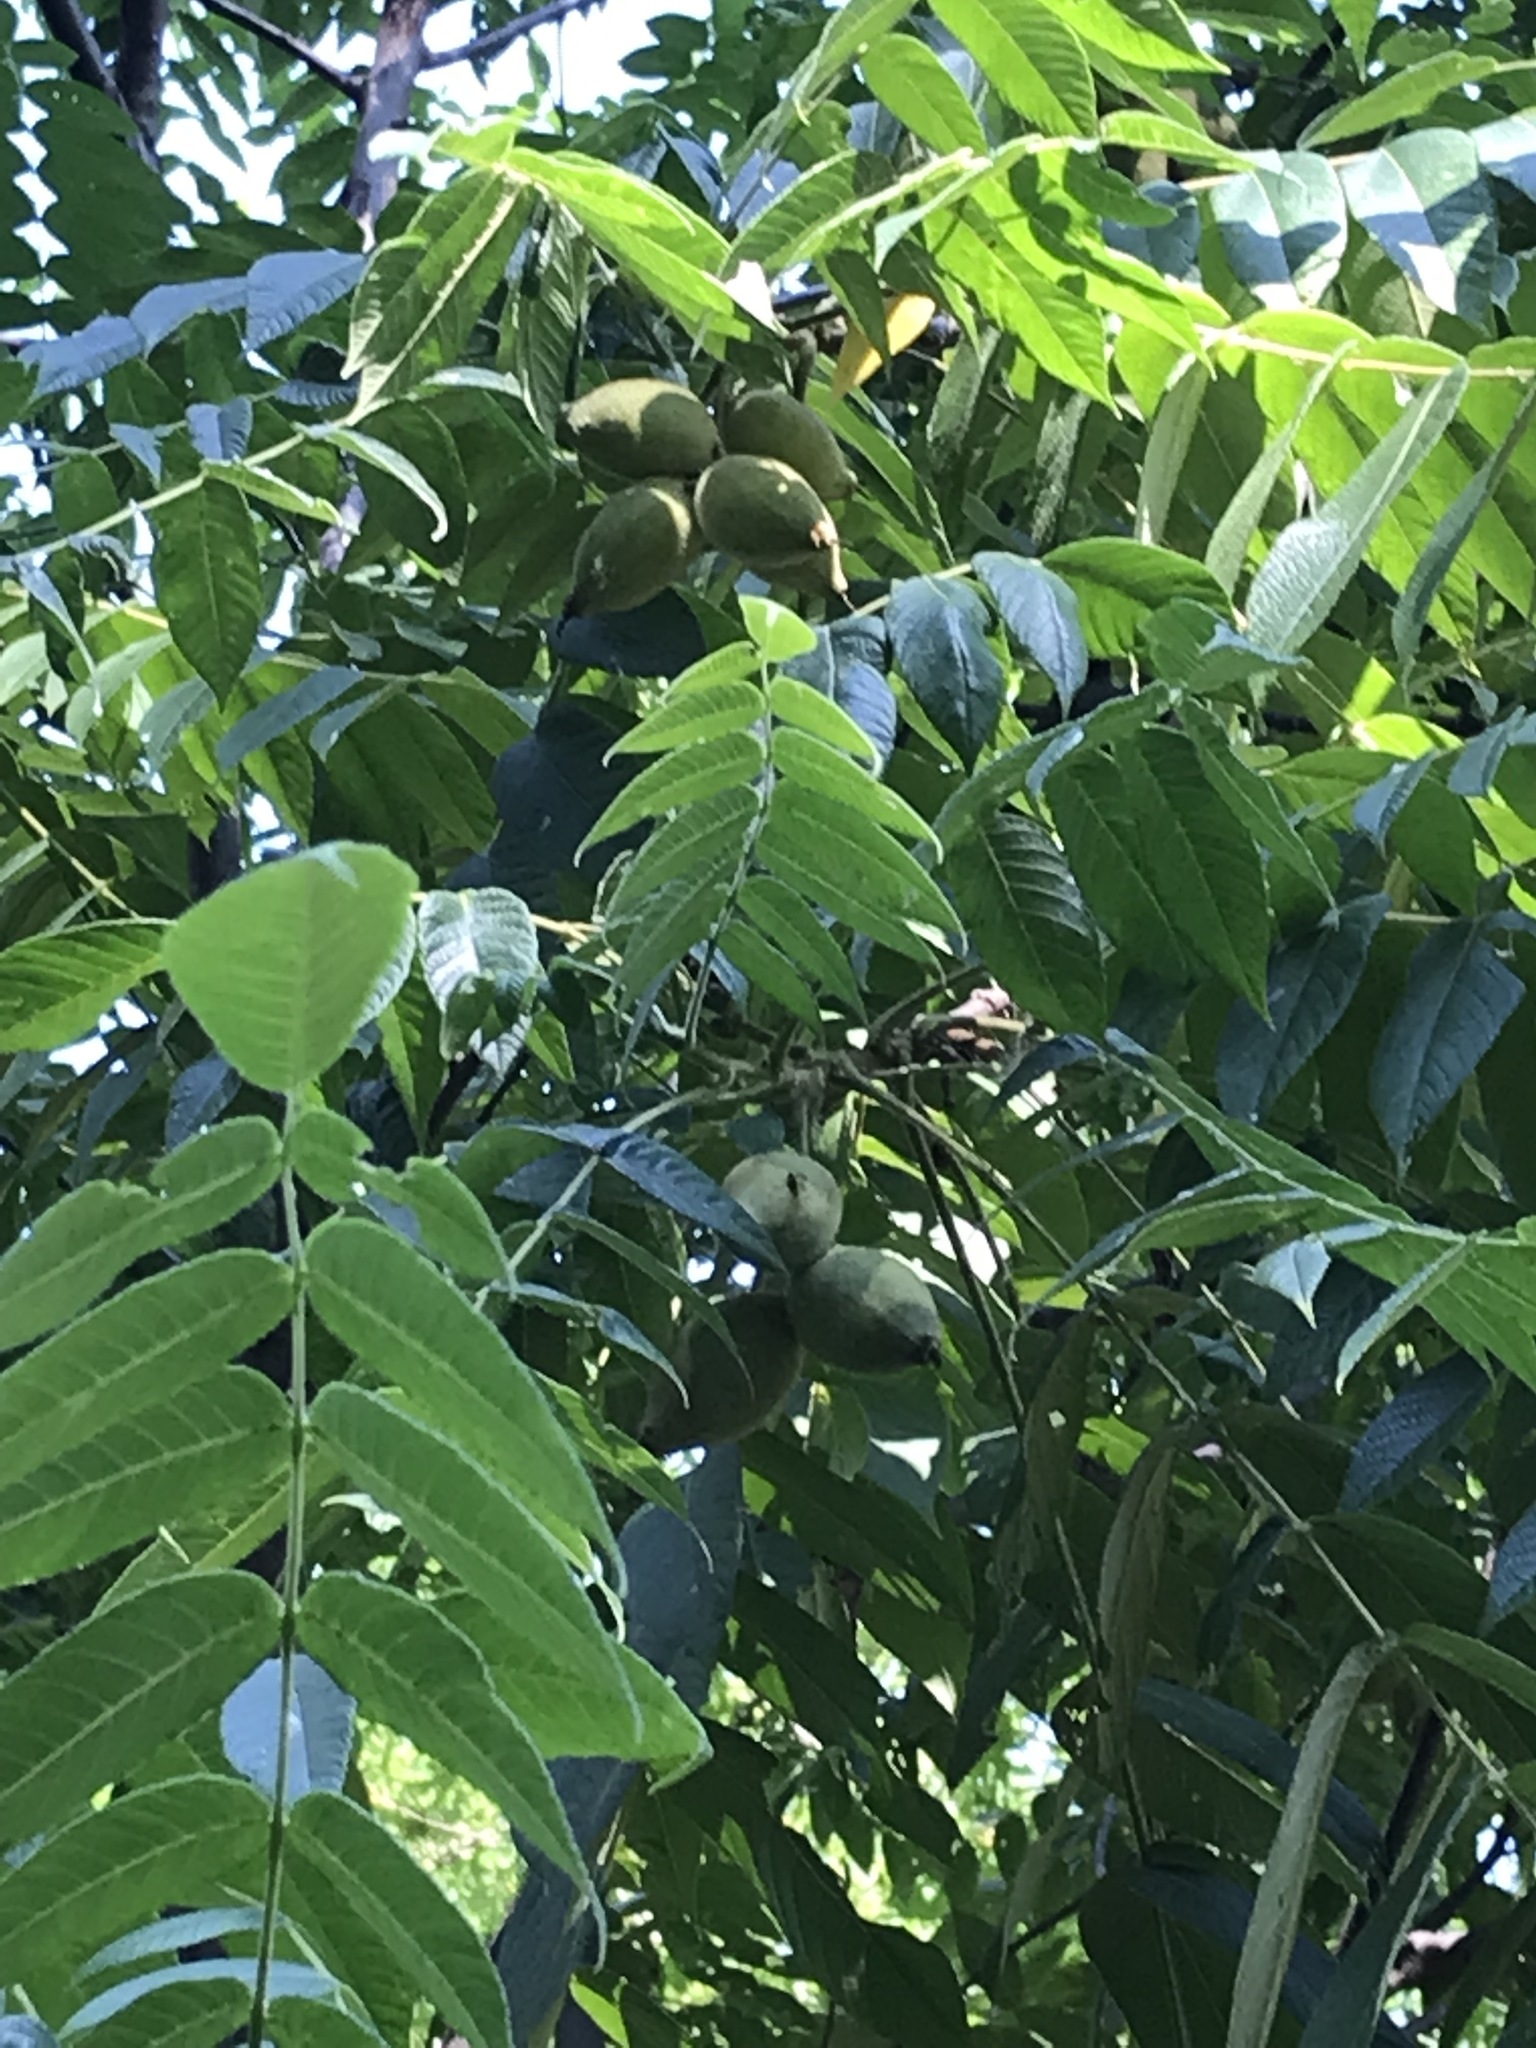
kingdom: Plantae
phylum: Tracheophyta
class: Magnoliopsida
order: Fagales
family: Juglandaceae
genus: Juglans
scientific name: Juglans cinerea
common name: Butternut
